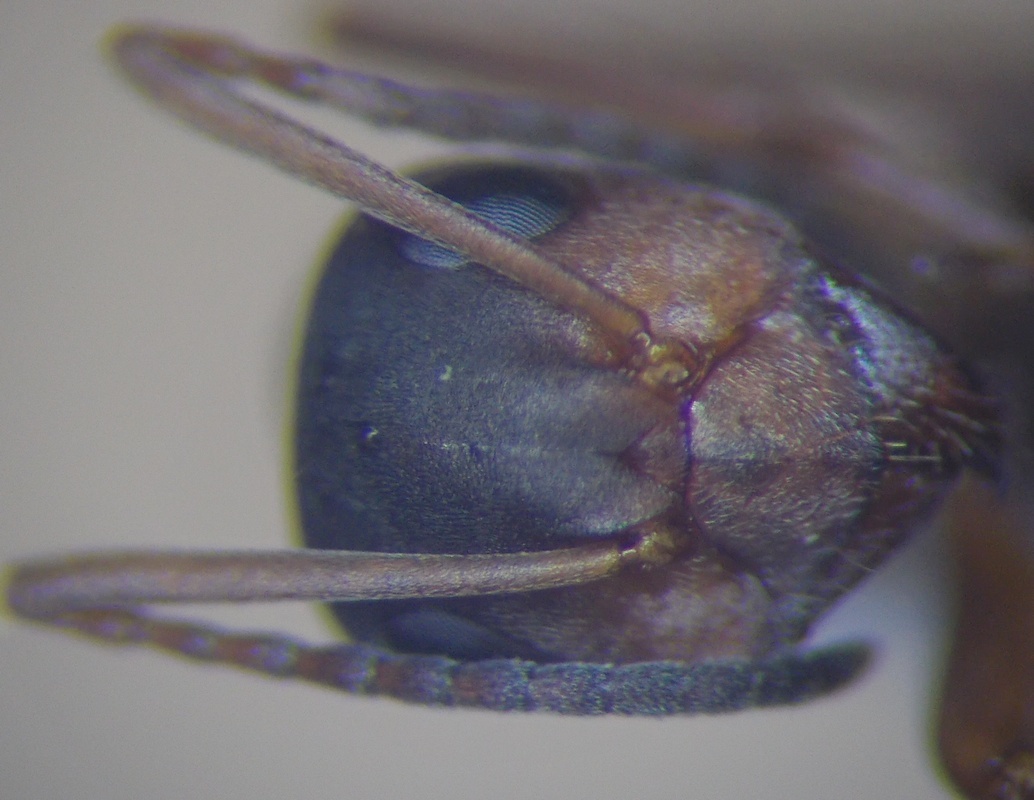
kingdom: Animalia
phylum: Arthropoda
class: Insecta
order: Hymenoptera
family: Formicidae
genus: Formica
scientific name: Formica cunicularia
